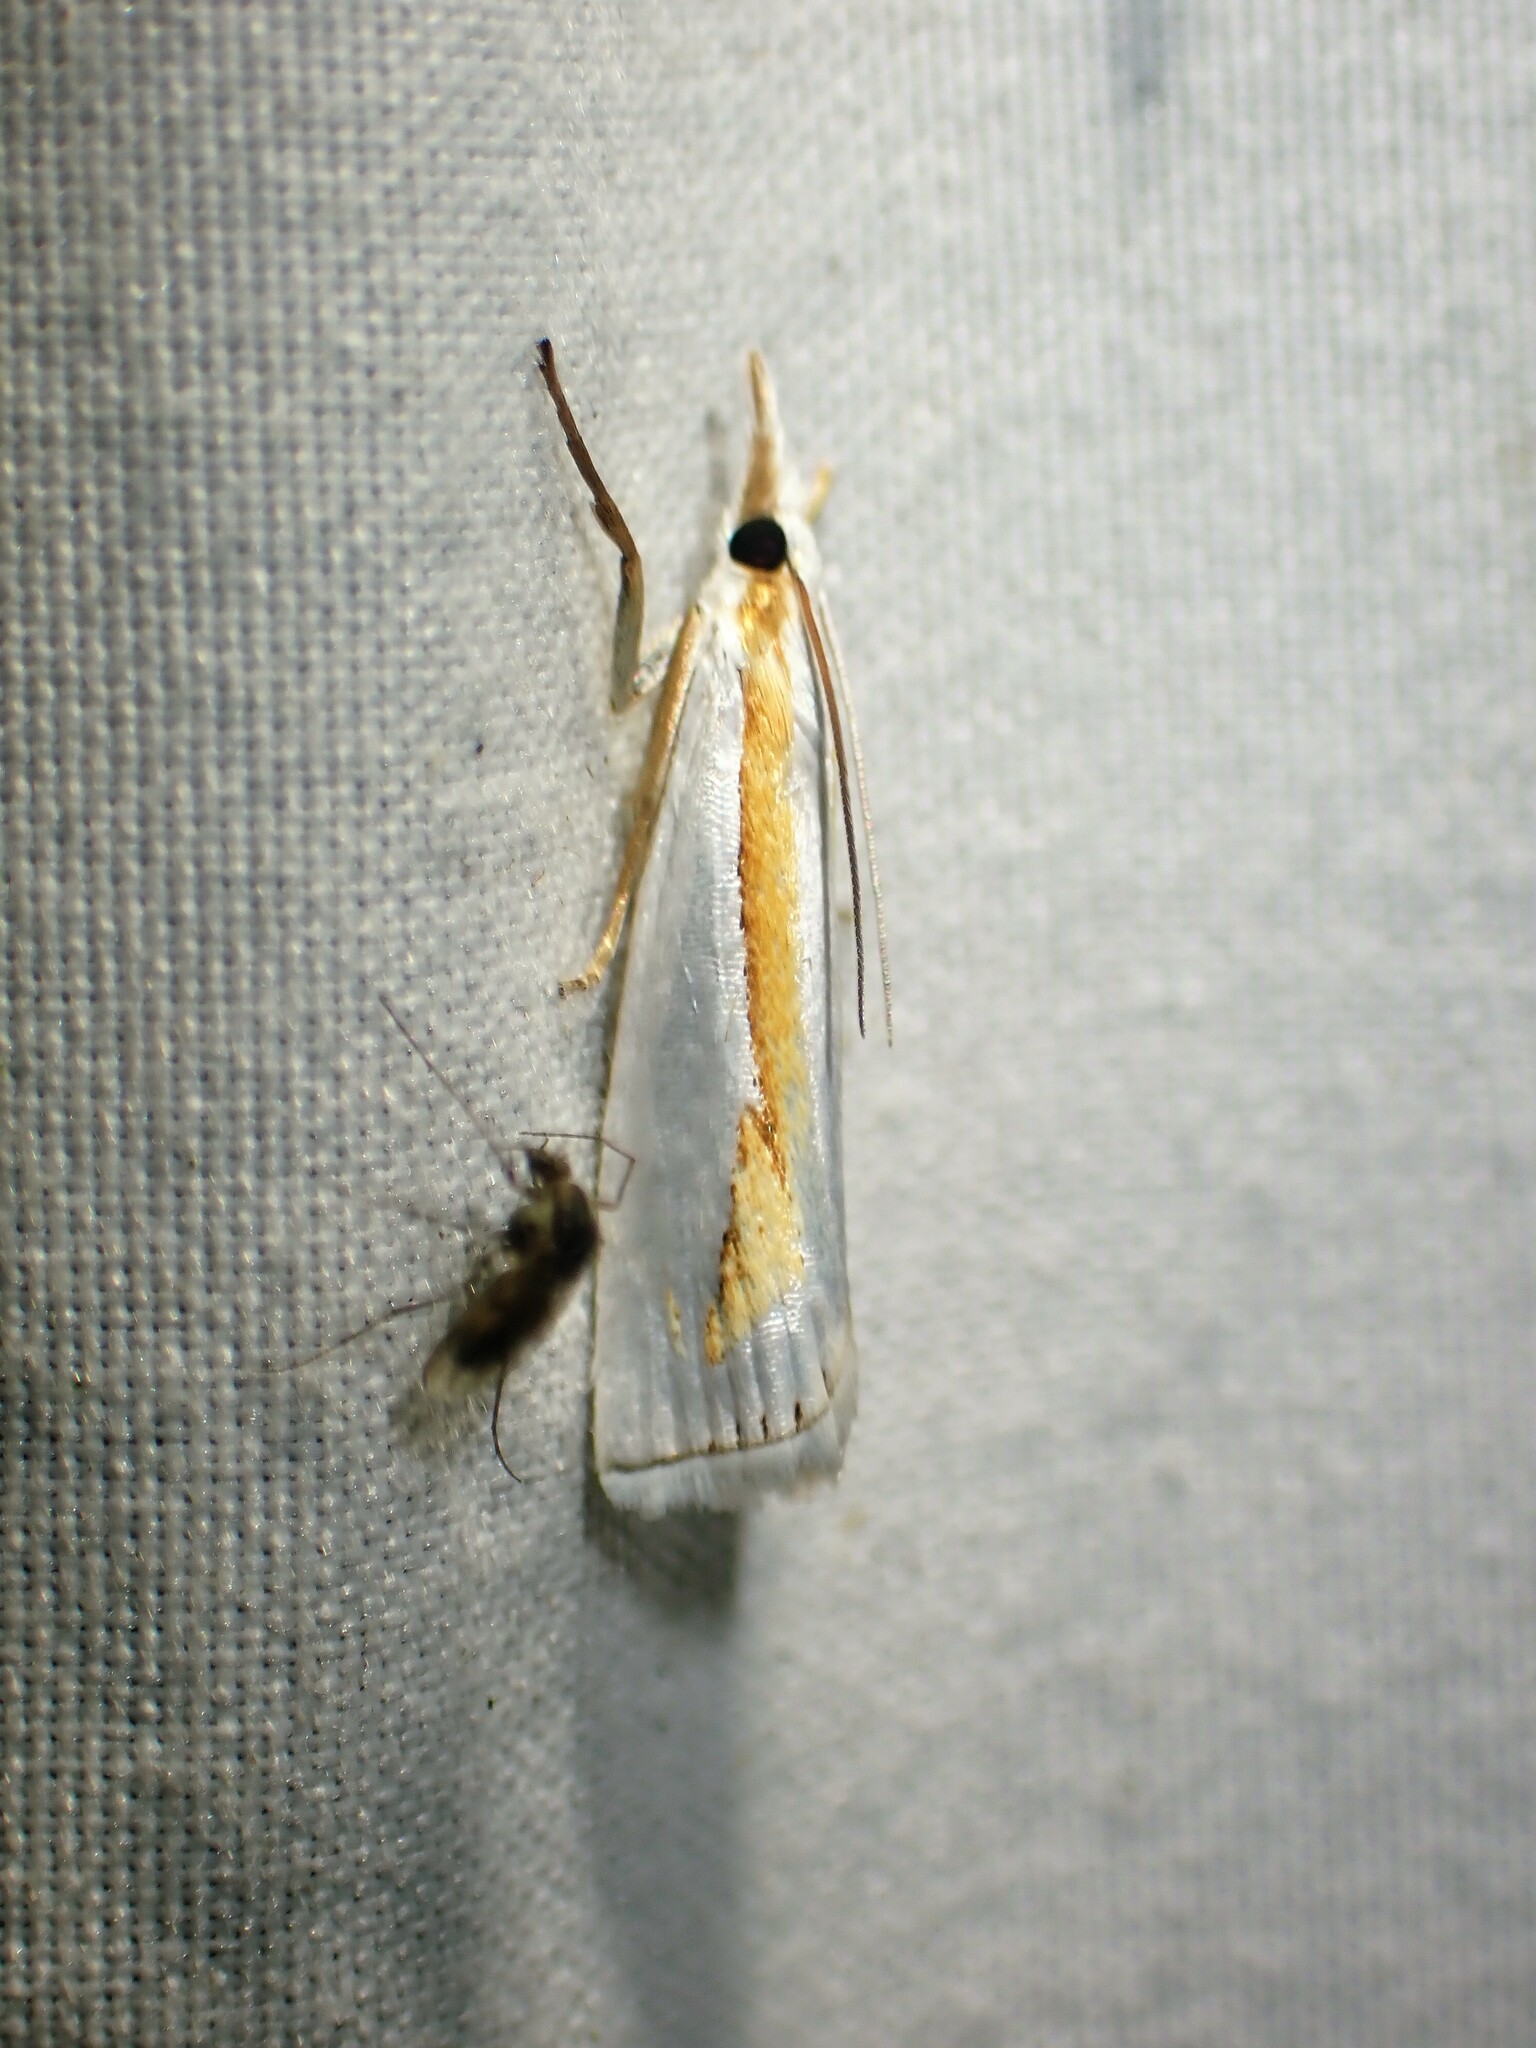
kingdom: Animalia
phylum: Arthropoda
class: Insecta
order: Lepidoptera
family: Crambidae
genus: Crambus
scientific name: Crambus girardellus
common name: Girard's grass-veneer
